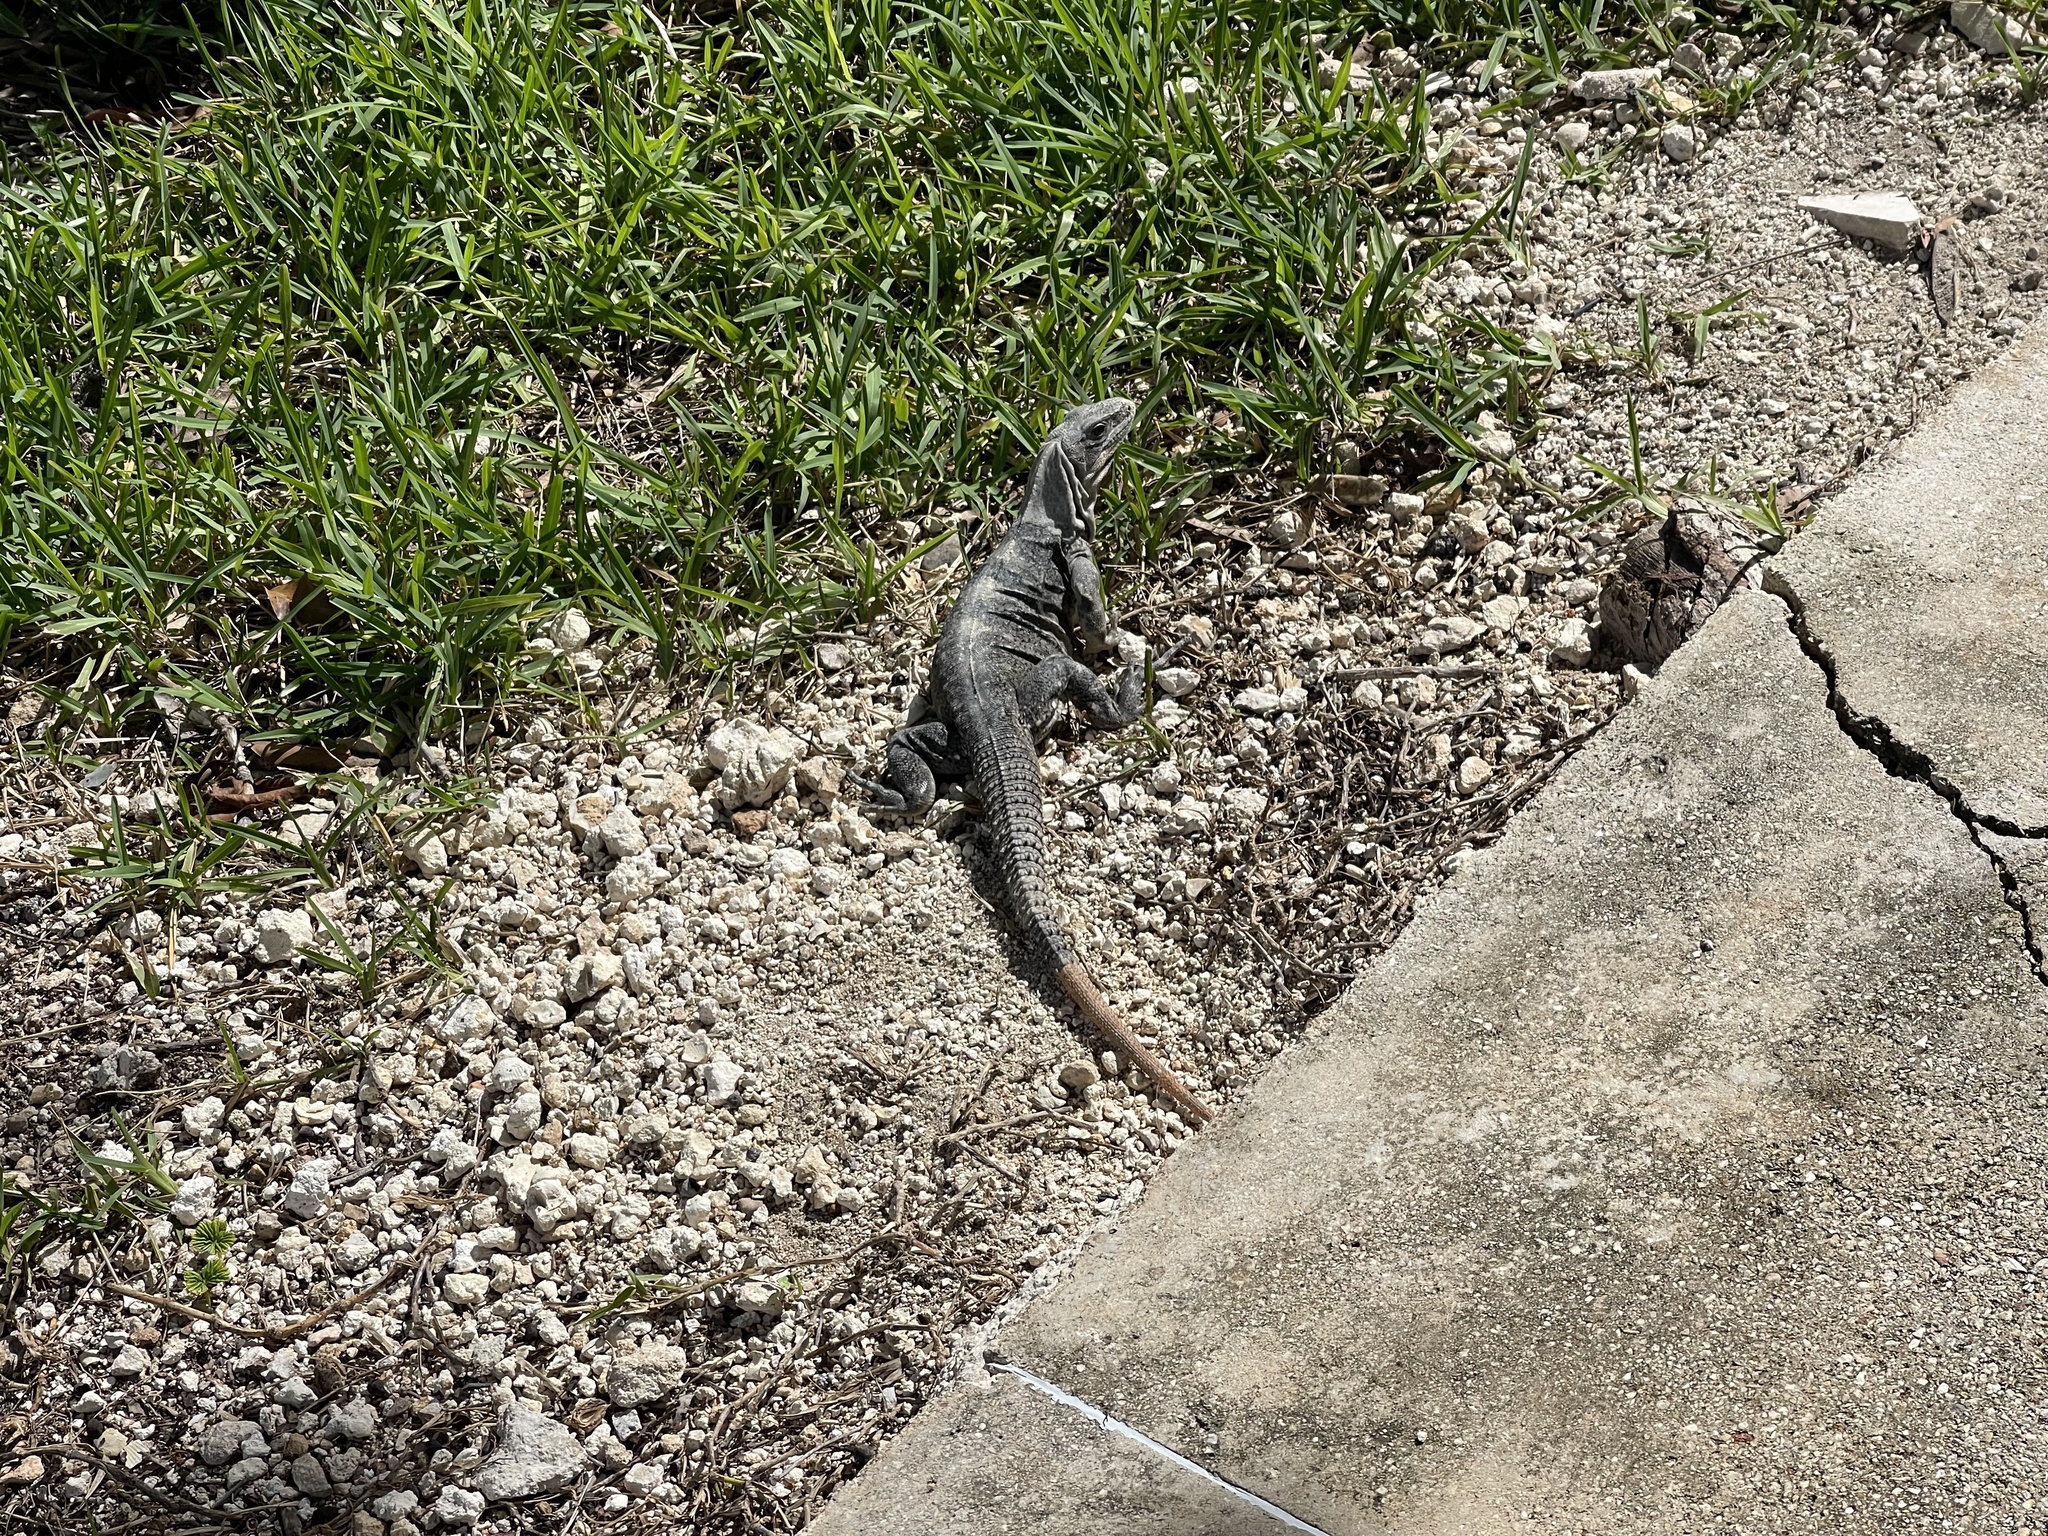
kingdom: Animalia
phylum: Chordata
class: Squamata
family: Iguanidae
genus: Ctenosaura
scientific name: Ctenosaura similis
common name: Black spiny-tailed iguana
